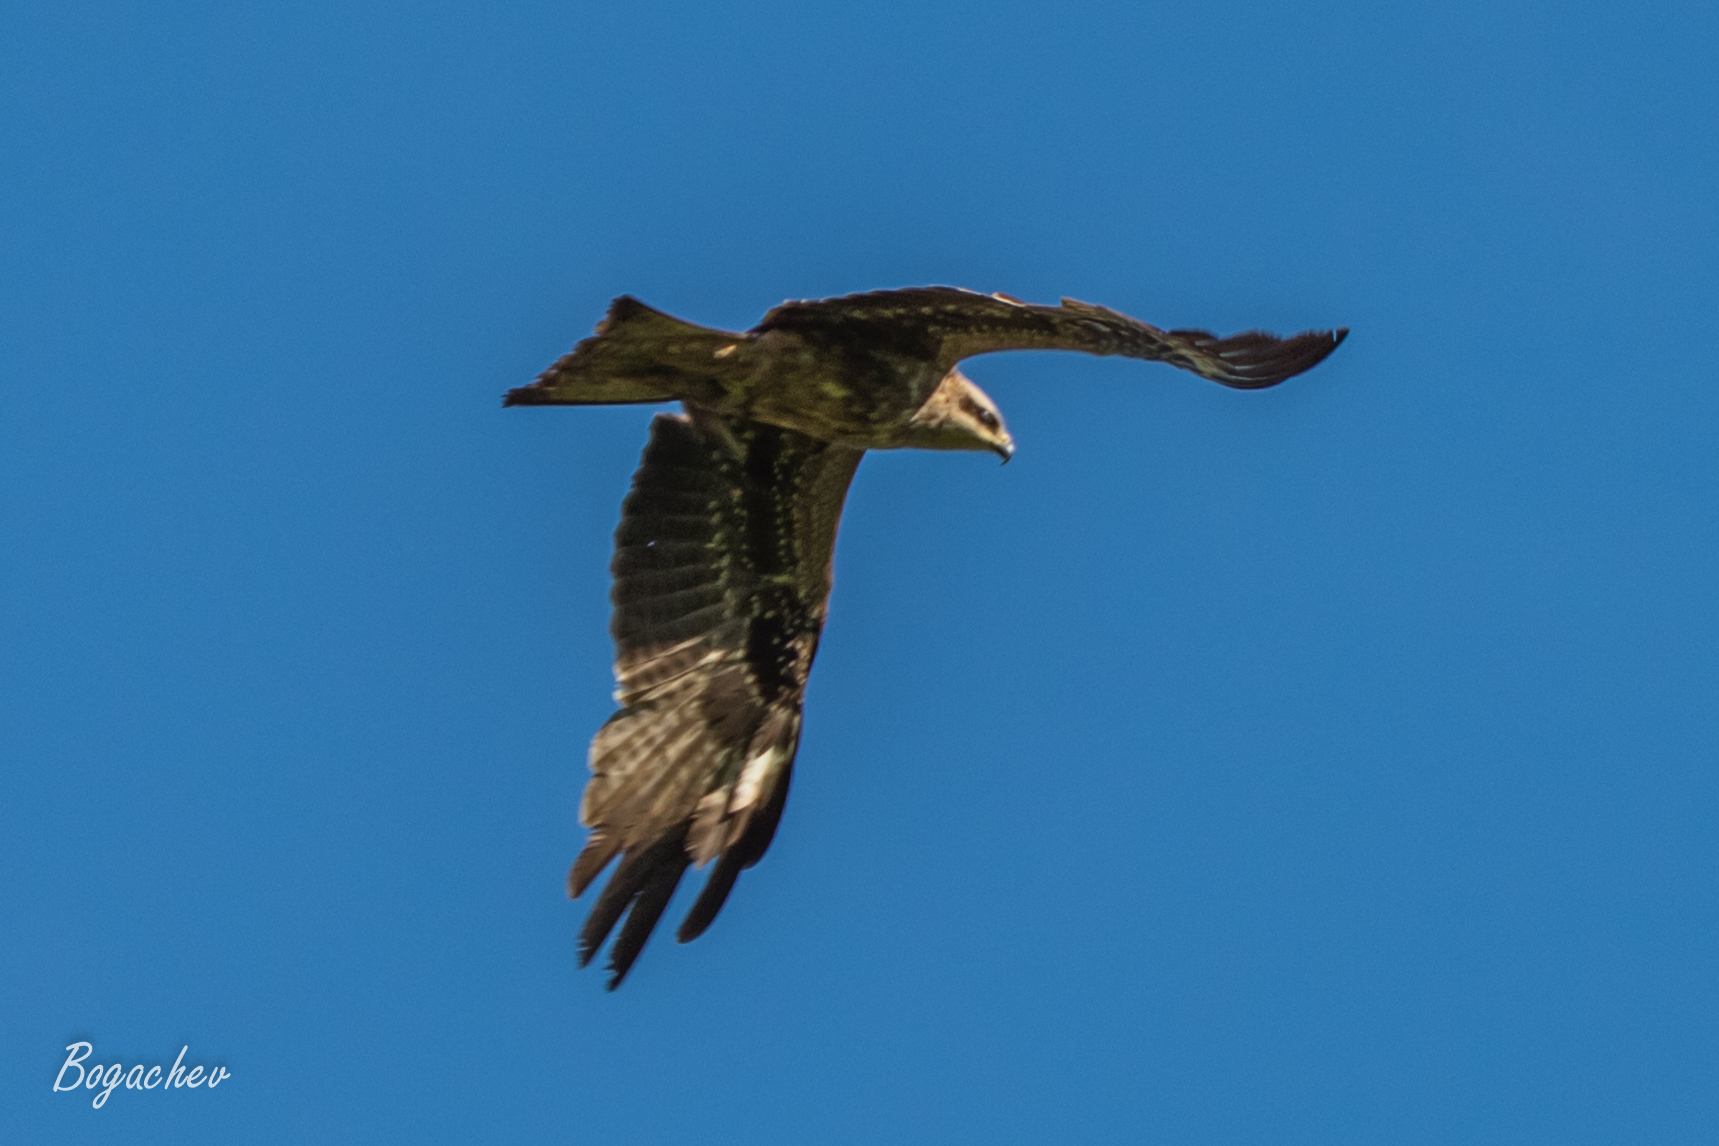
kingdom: Animalia
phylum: Chordata
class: Aves
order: Accipitriformes
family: Accipitridae
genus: Milvus
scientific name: Milvus migrans
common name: Black kite
